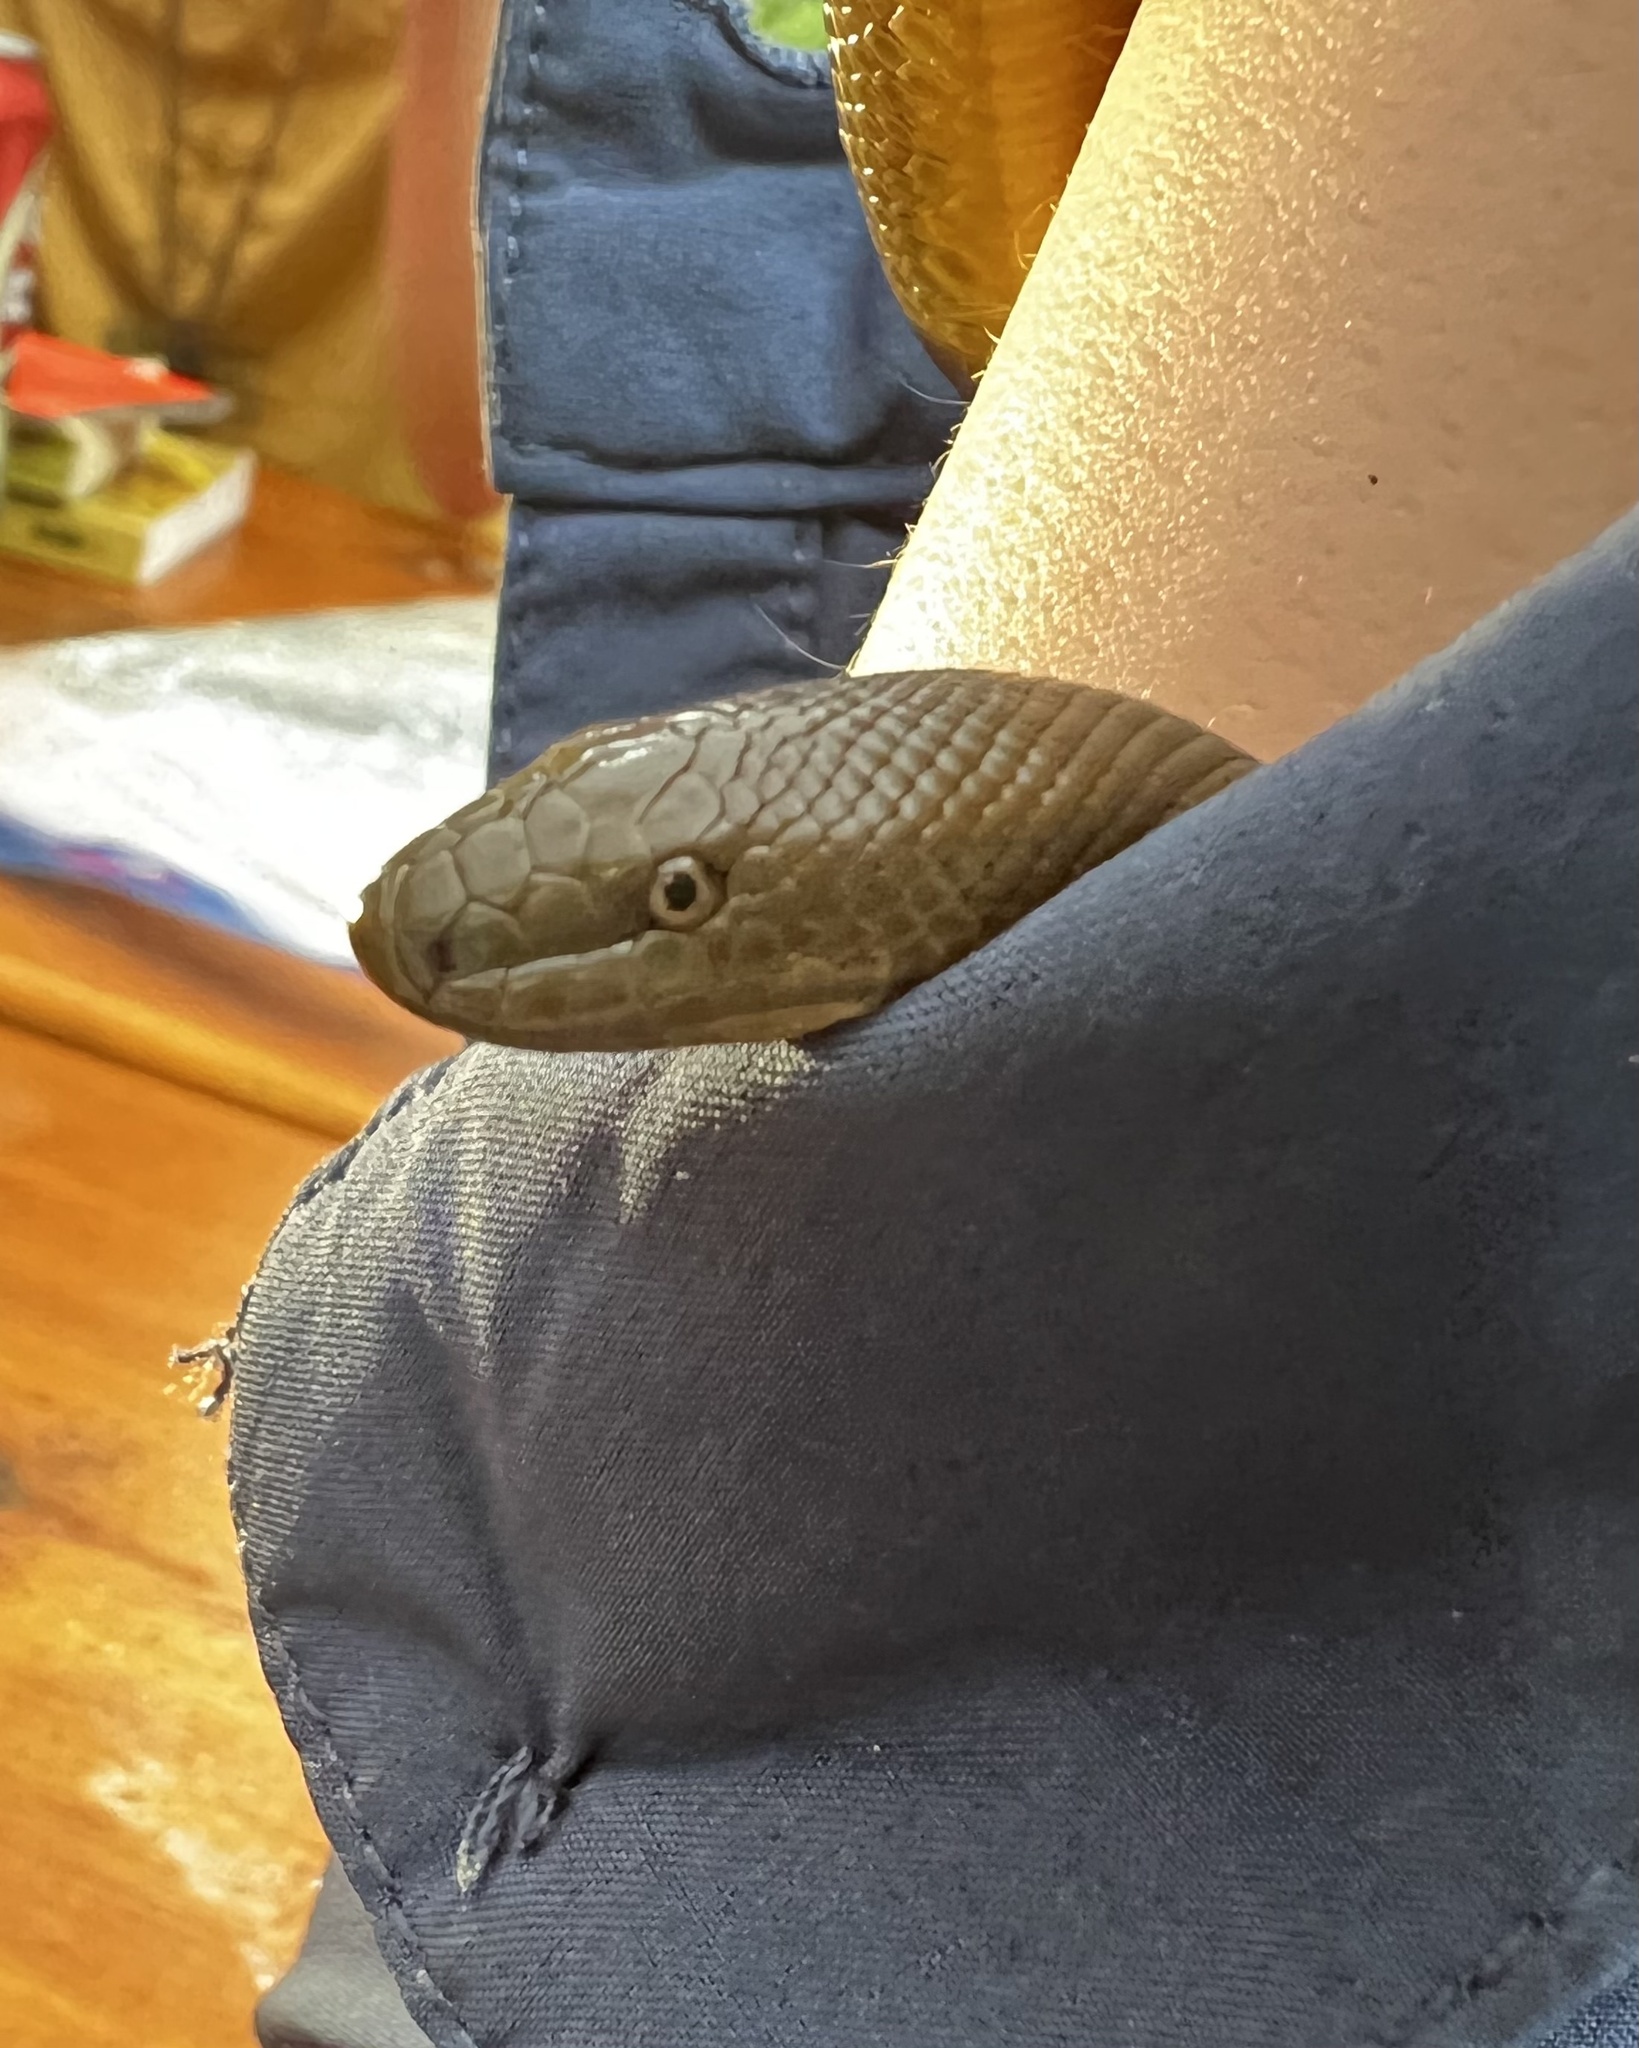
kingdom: Animalia
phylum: Chordata
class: Squamata
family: Boidae
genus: Charina
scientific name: Charina bottae
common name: Northern rubber boa
